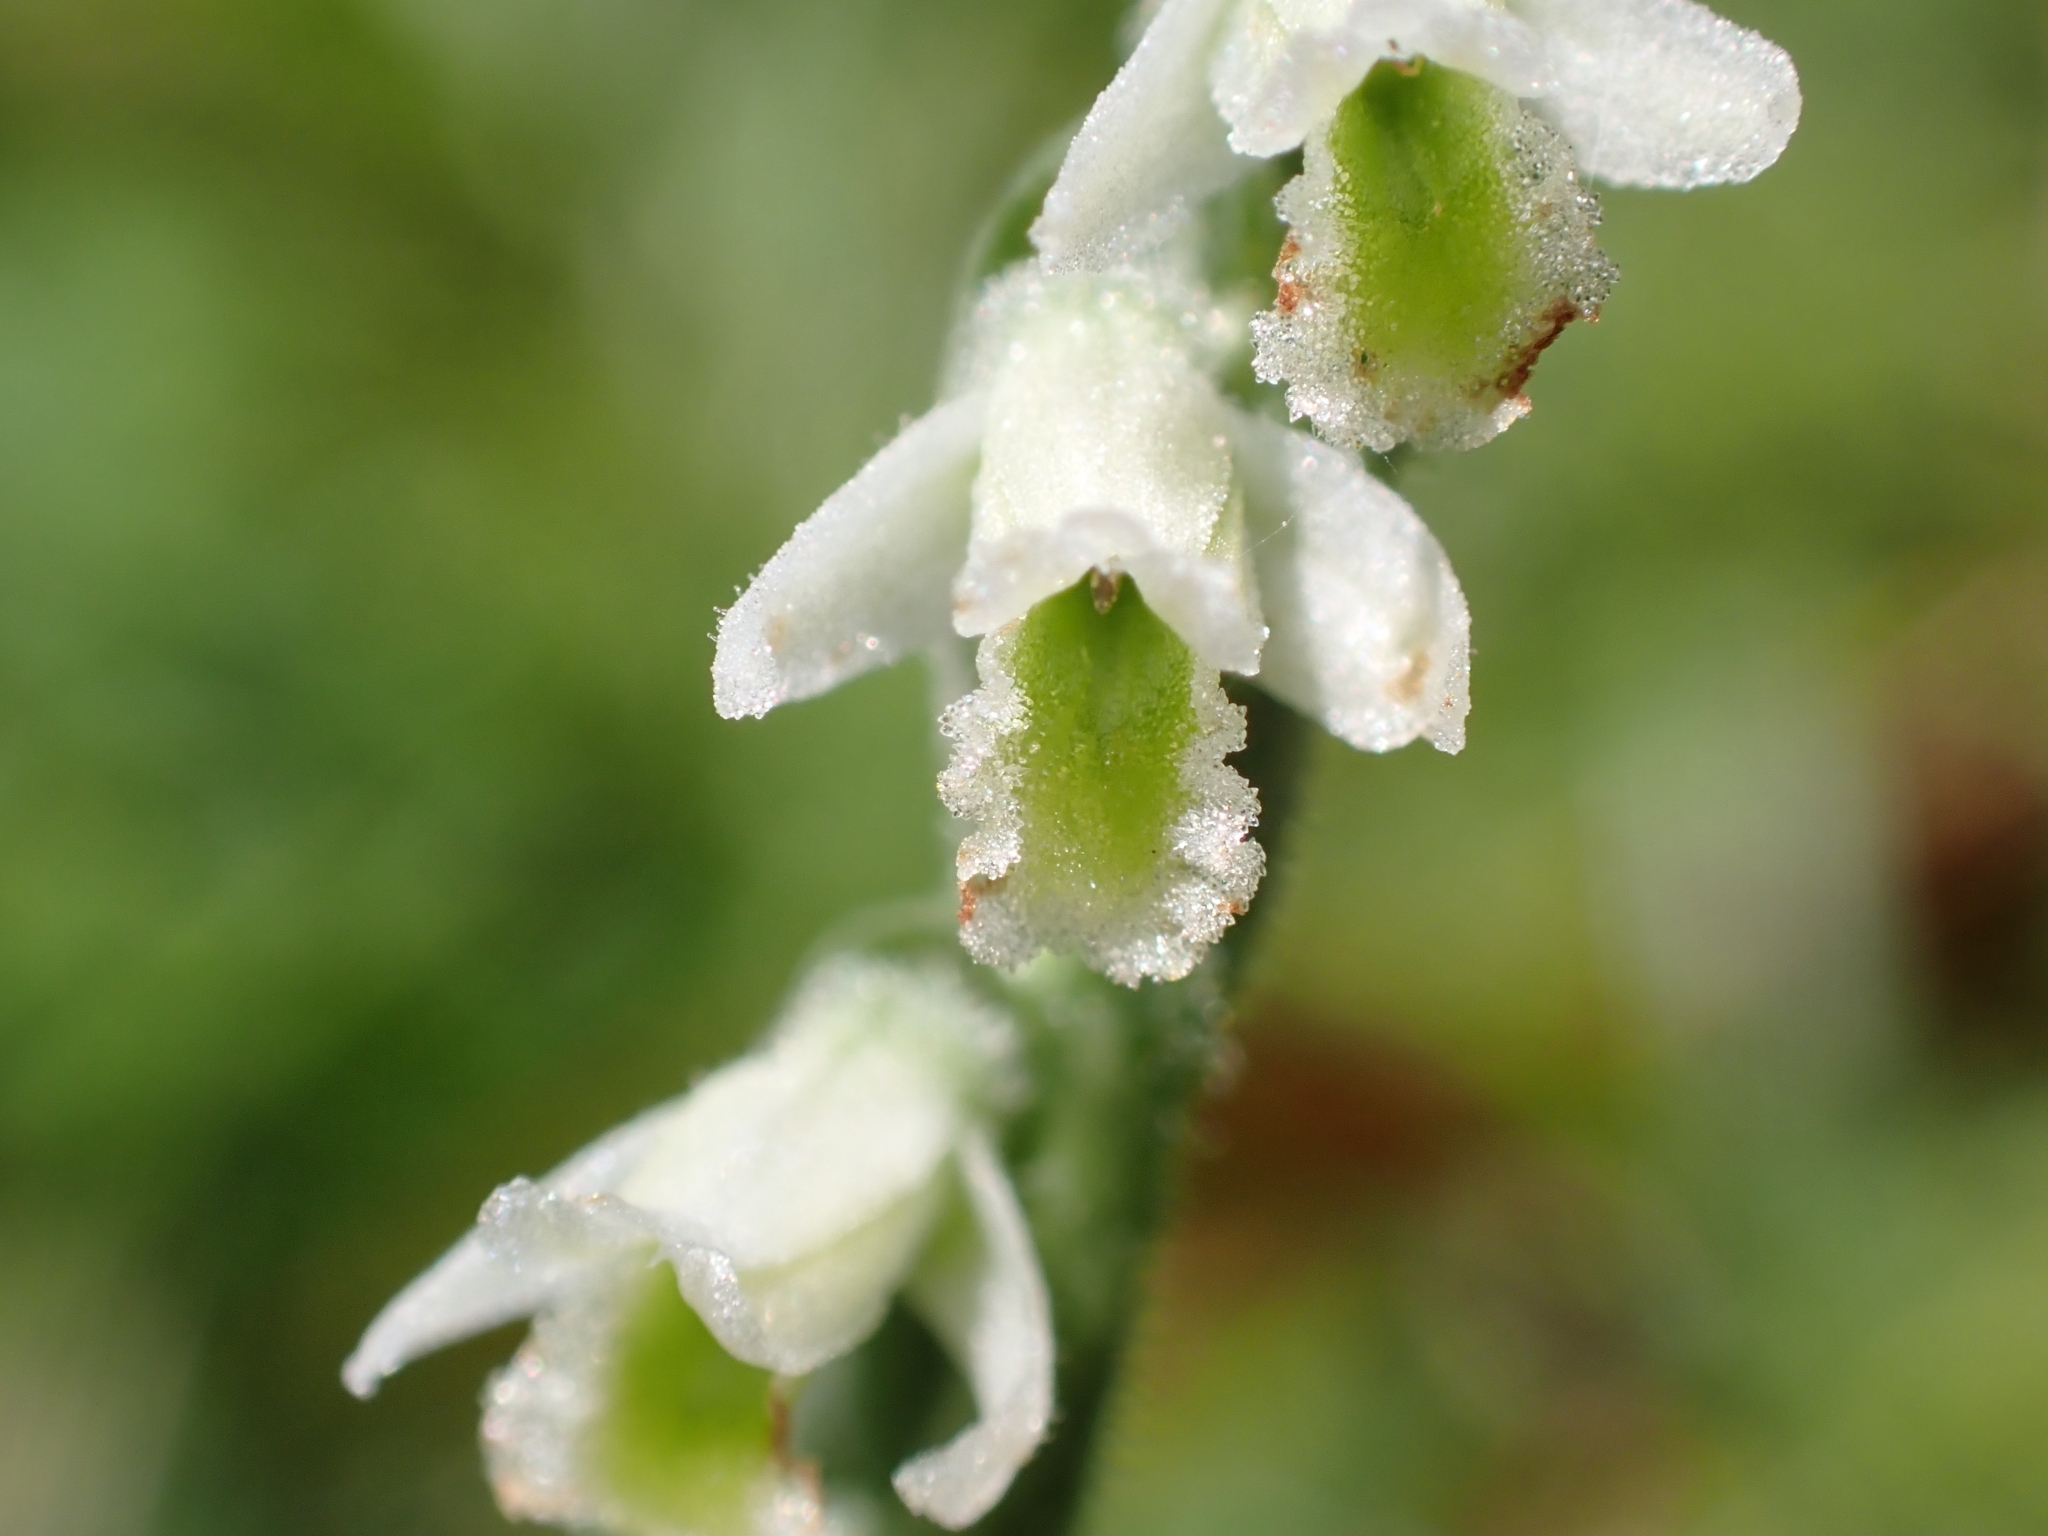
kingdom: Plantae
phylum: Tracheophyta
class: Liliopsida
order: Asparagales
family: Orchidaceae
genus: Spiranthes
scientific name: Spiranthes spiralis
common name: Autumn lady's-tresses
